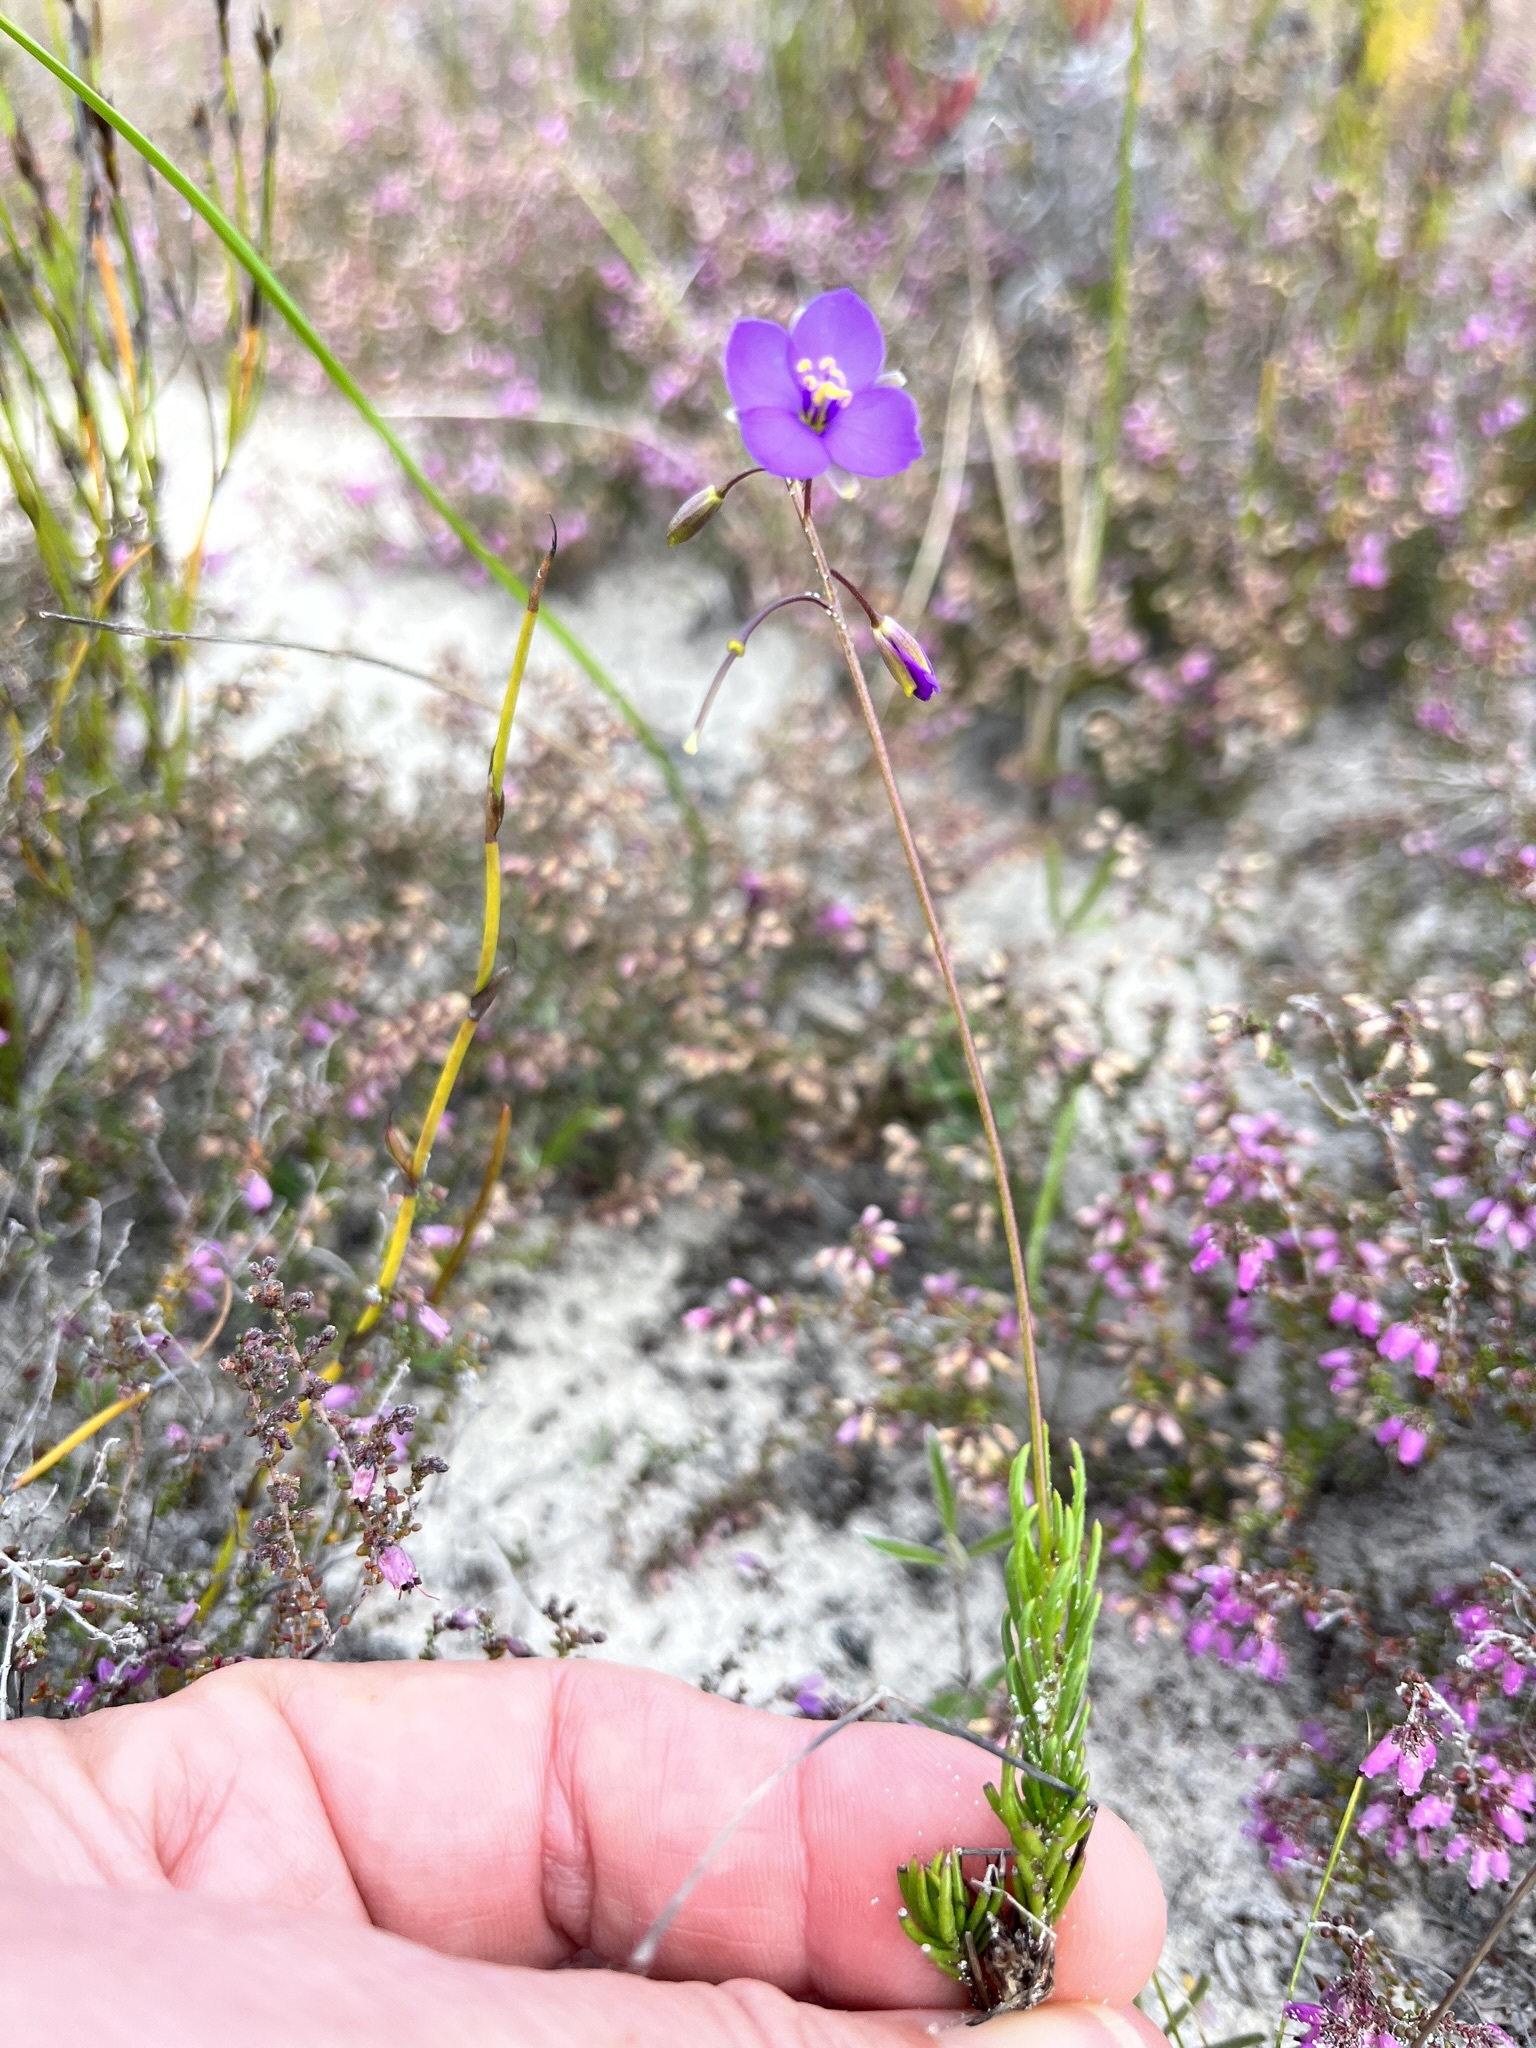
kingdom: Plantae
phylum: Tracheophyta
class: Magnoliopsida
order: Brassicales
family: Brassicaceae
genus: Heliophila
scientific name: Heliophila subulata
